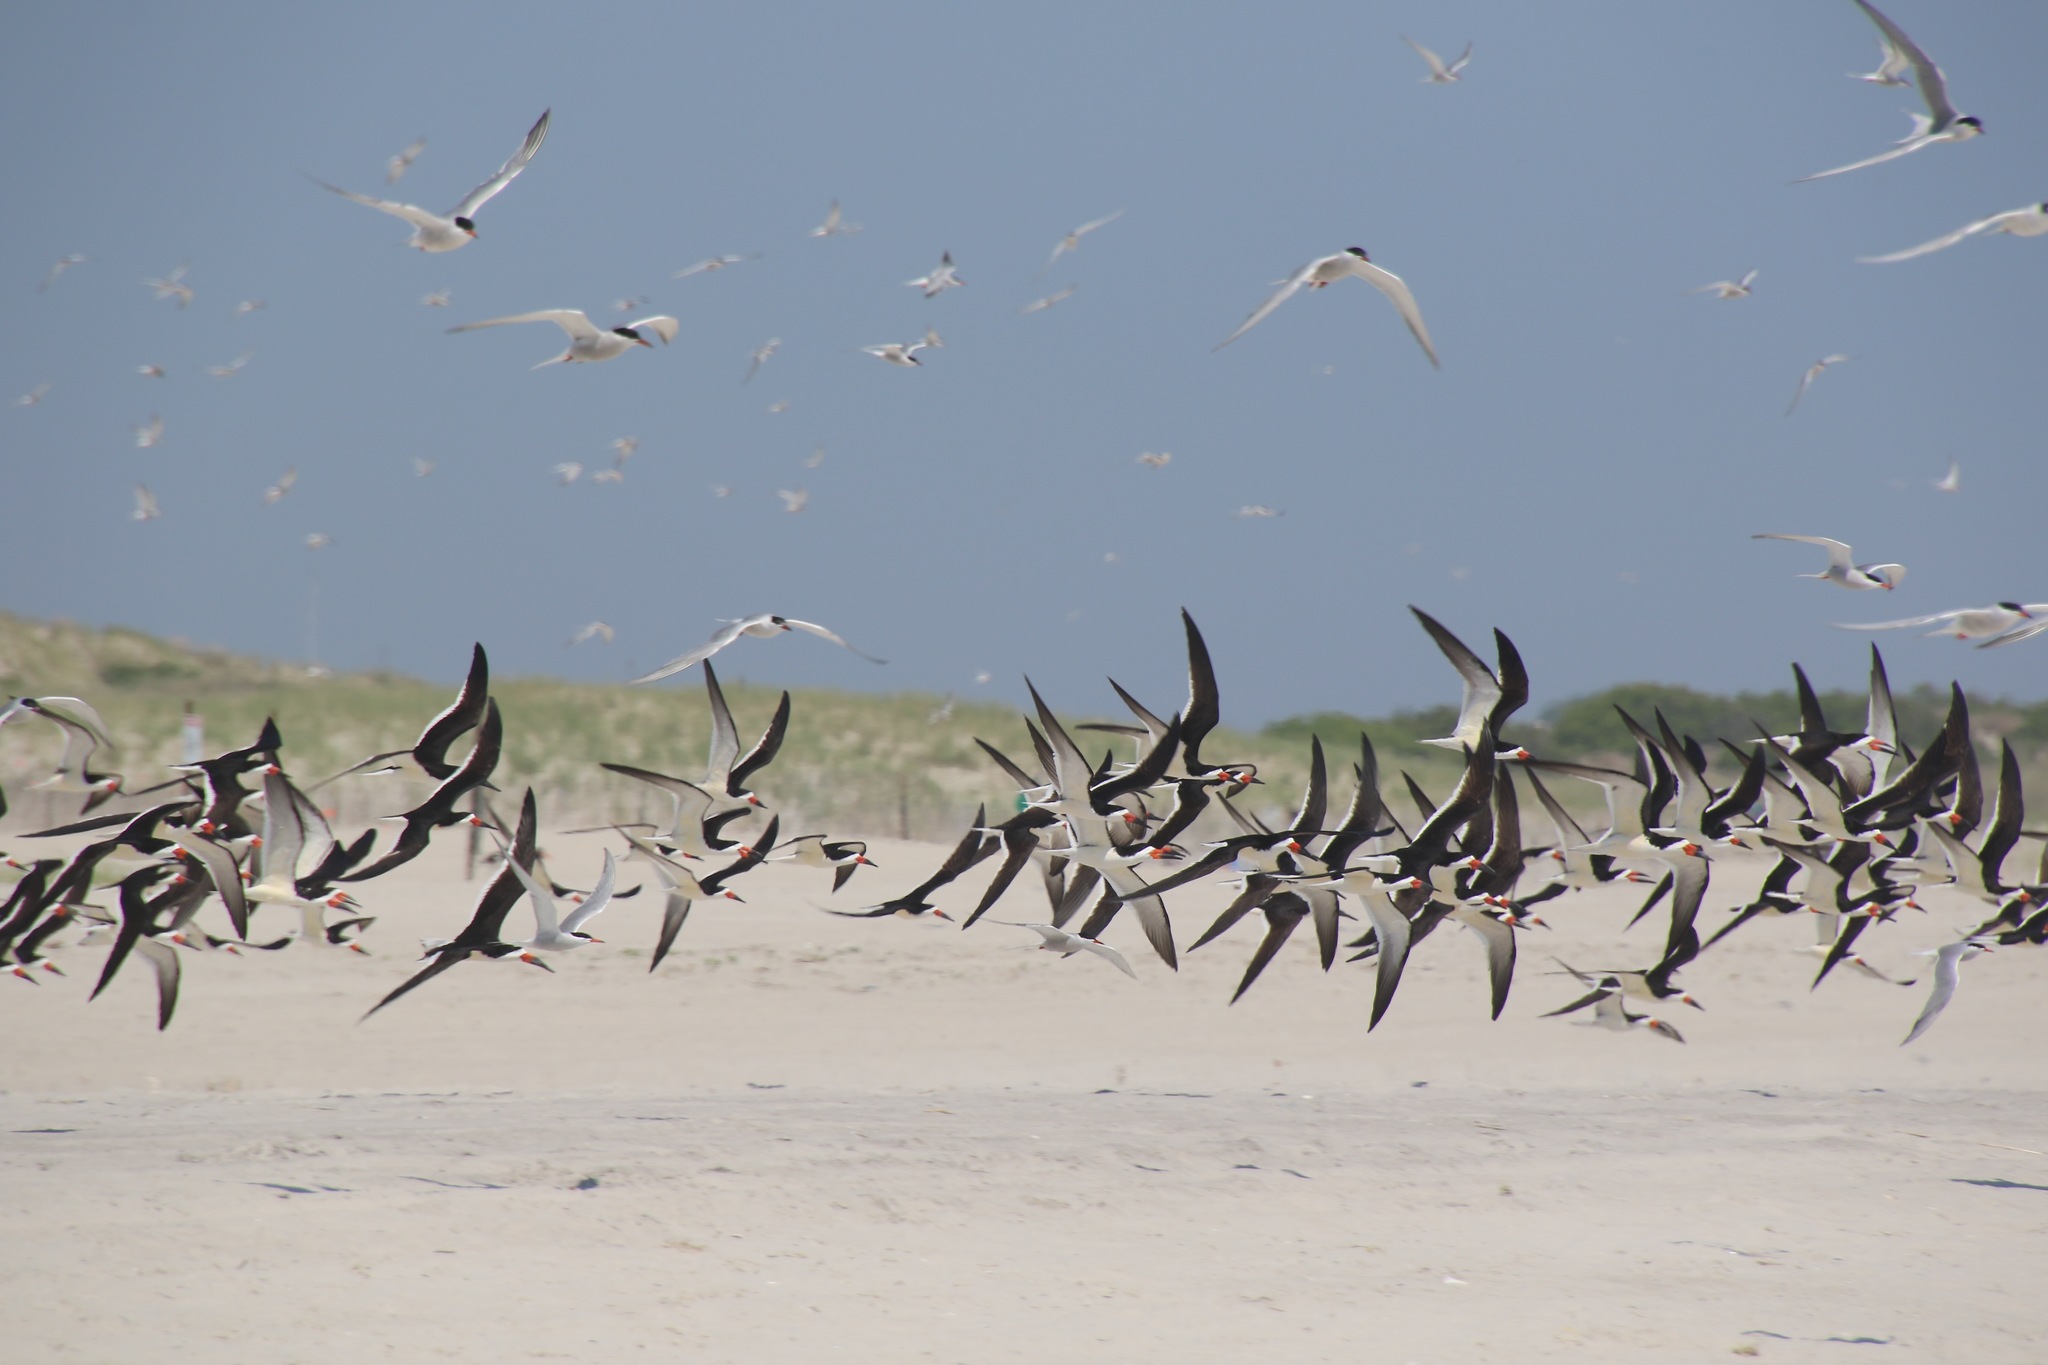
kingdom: Animalia
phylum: Chordata
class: Aves
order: Charadriiformes
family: Laridae
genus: Rynchops
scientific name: Rynchops niger
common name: Black skimmer
